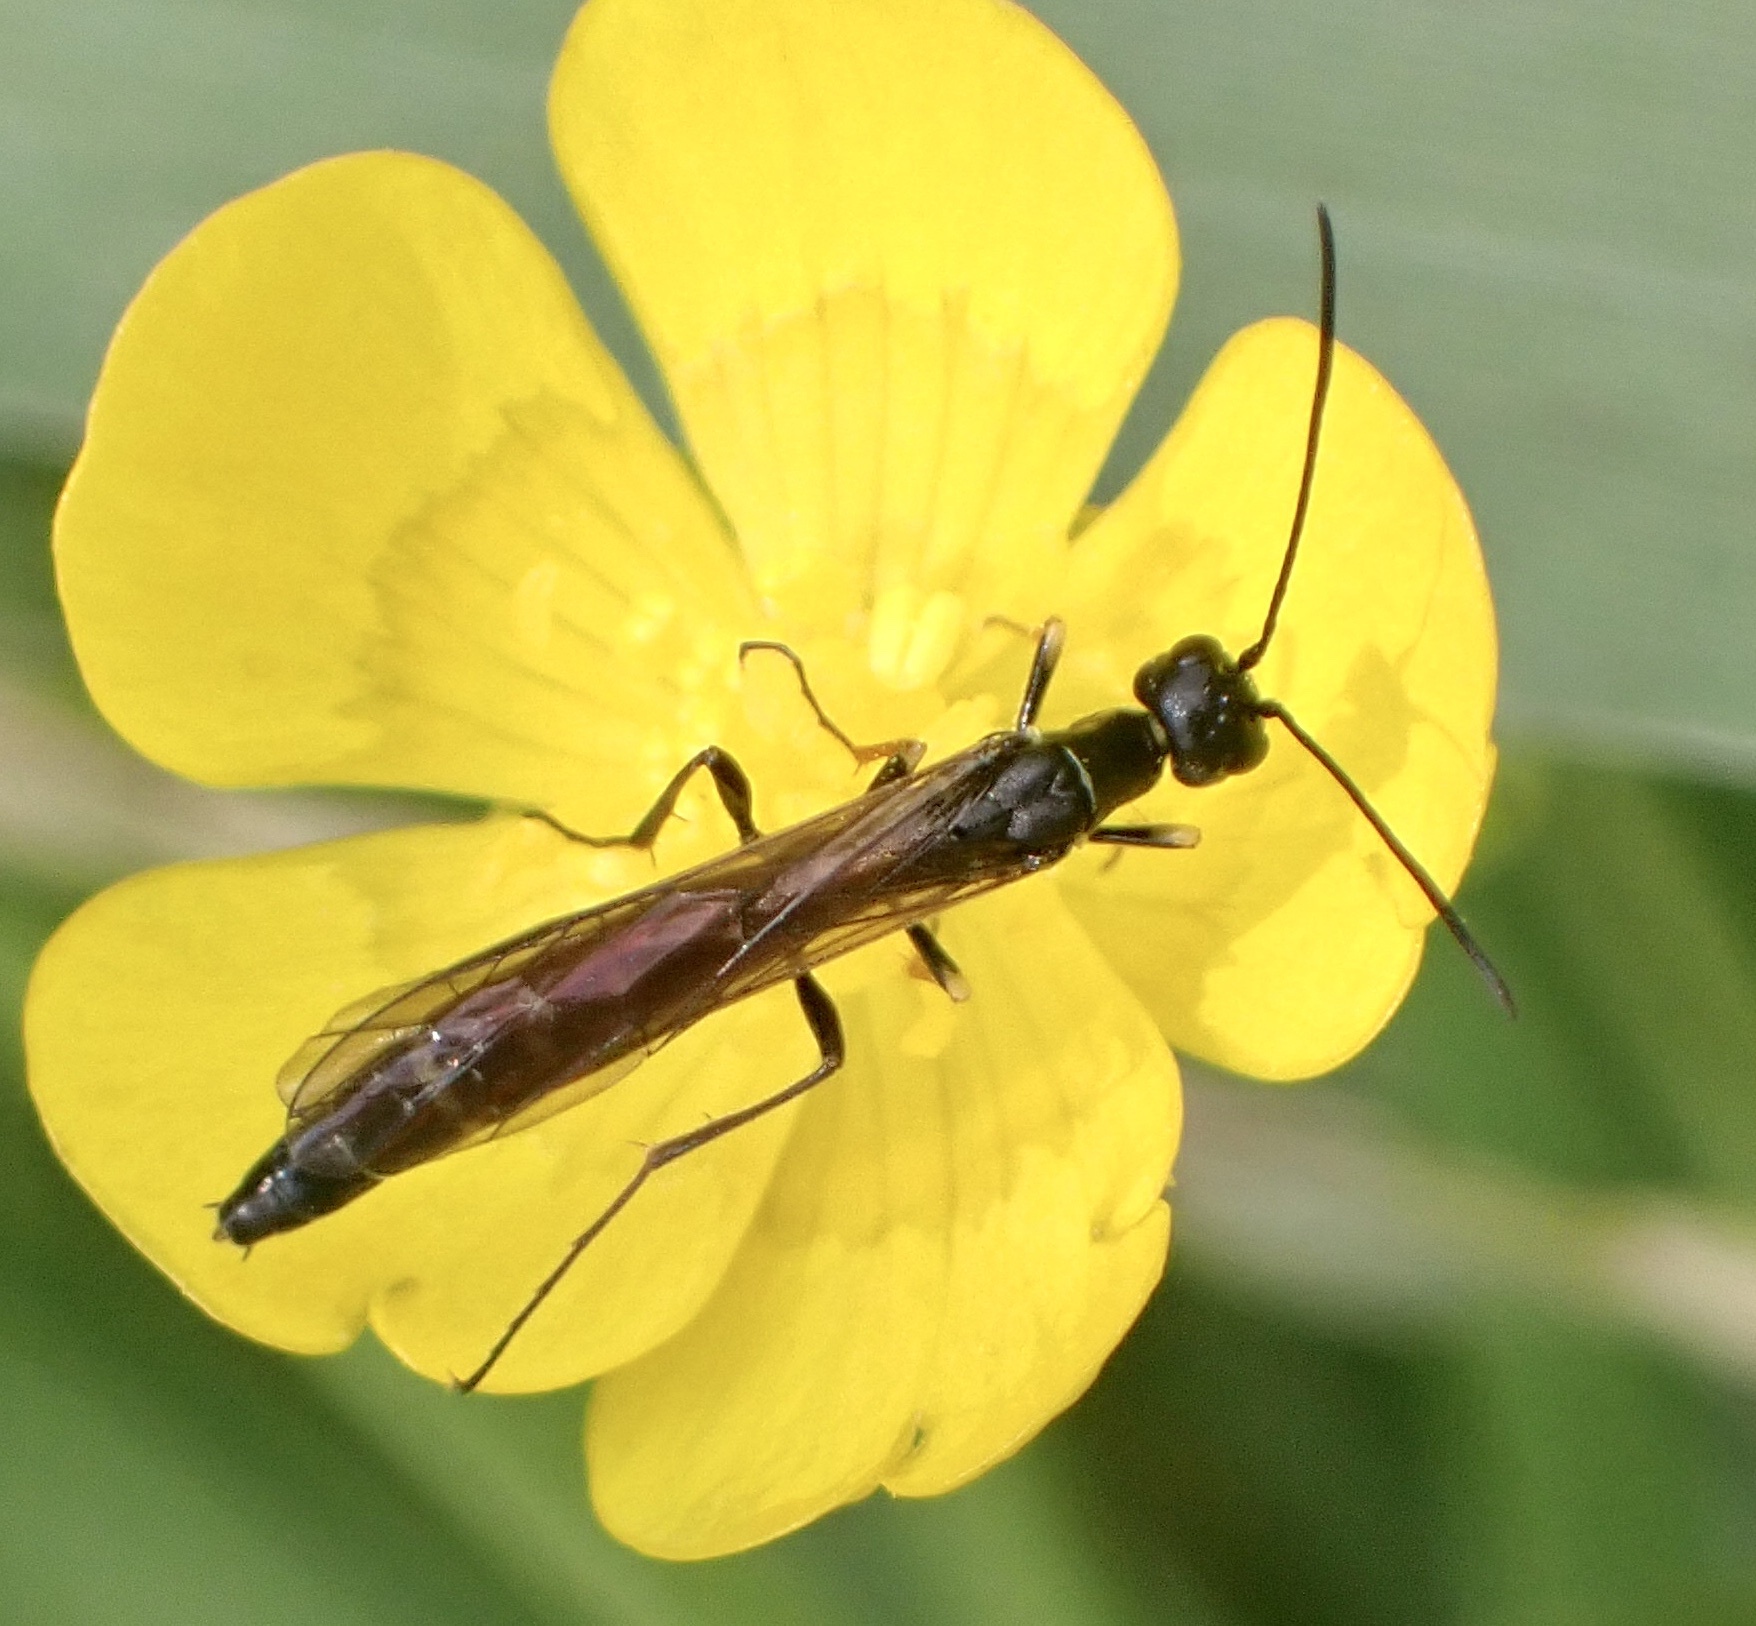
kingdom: Animalia
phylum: Arthropoda
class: Insecta
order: Hymenoptera
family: Cephidae
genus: Calameuta
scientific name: Calameuta filiformis
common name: Reed stem borer
